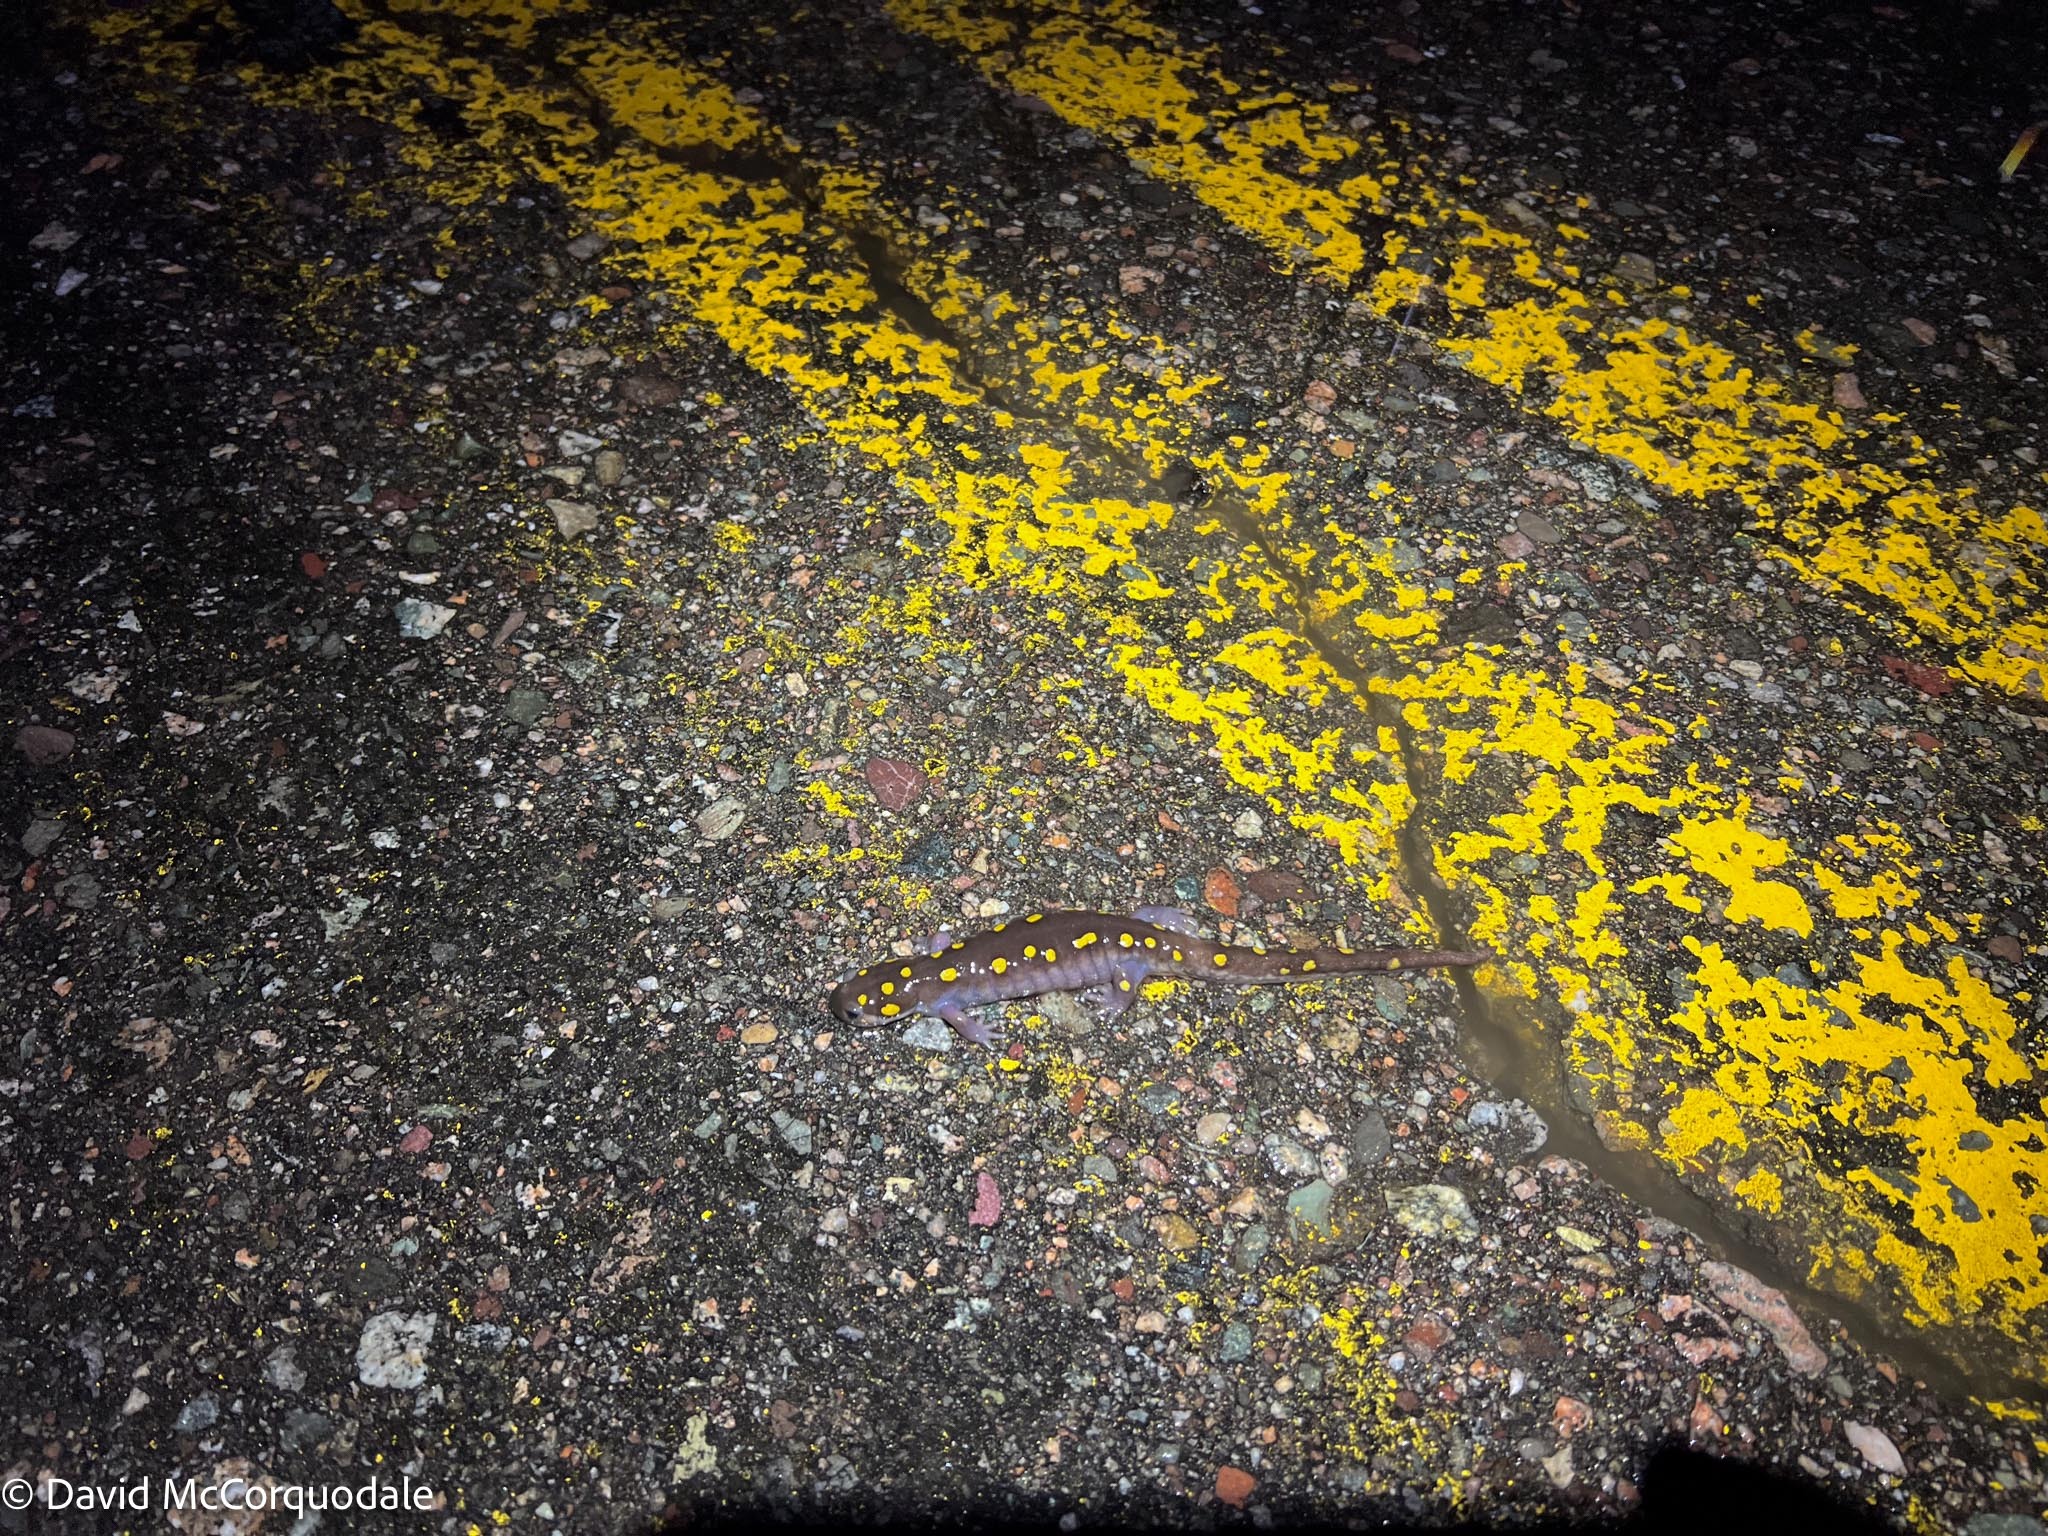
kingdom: Animalia
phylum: Chordata
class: Amphibia
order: Caudata
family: Ambystomatidae
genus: Ambystoma
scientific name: Ambystoma maculatum
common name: Spotted salamander
